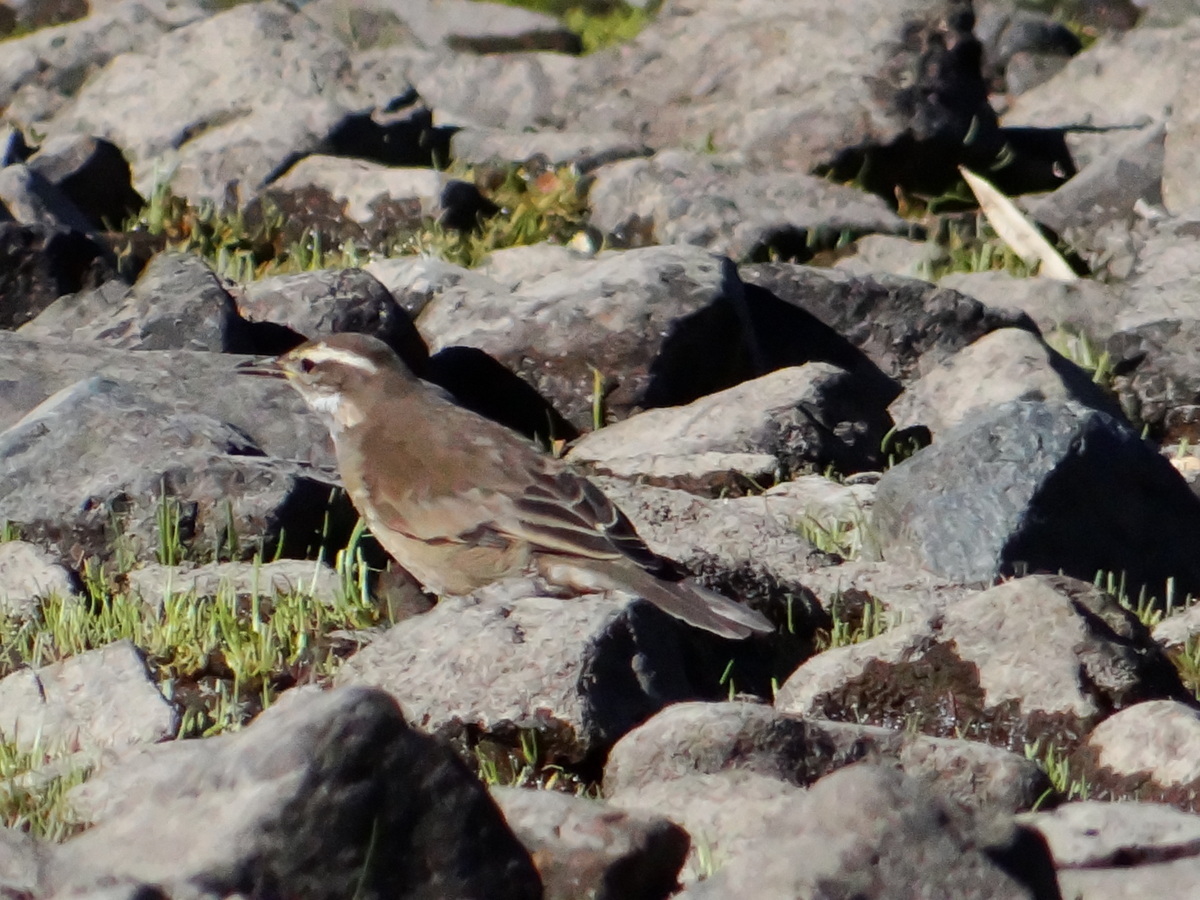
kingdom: Animalia
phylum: Chordata
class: Aves
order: Passeriformes
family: Furnariidae
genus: Cinclodes
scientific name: Cinclodes fuscus
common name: Buff-winged cinclodes
